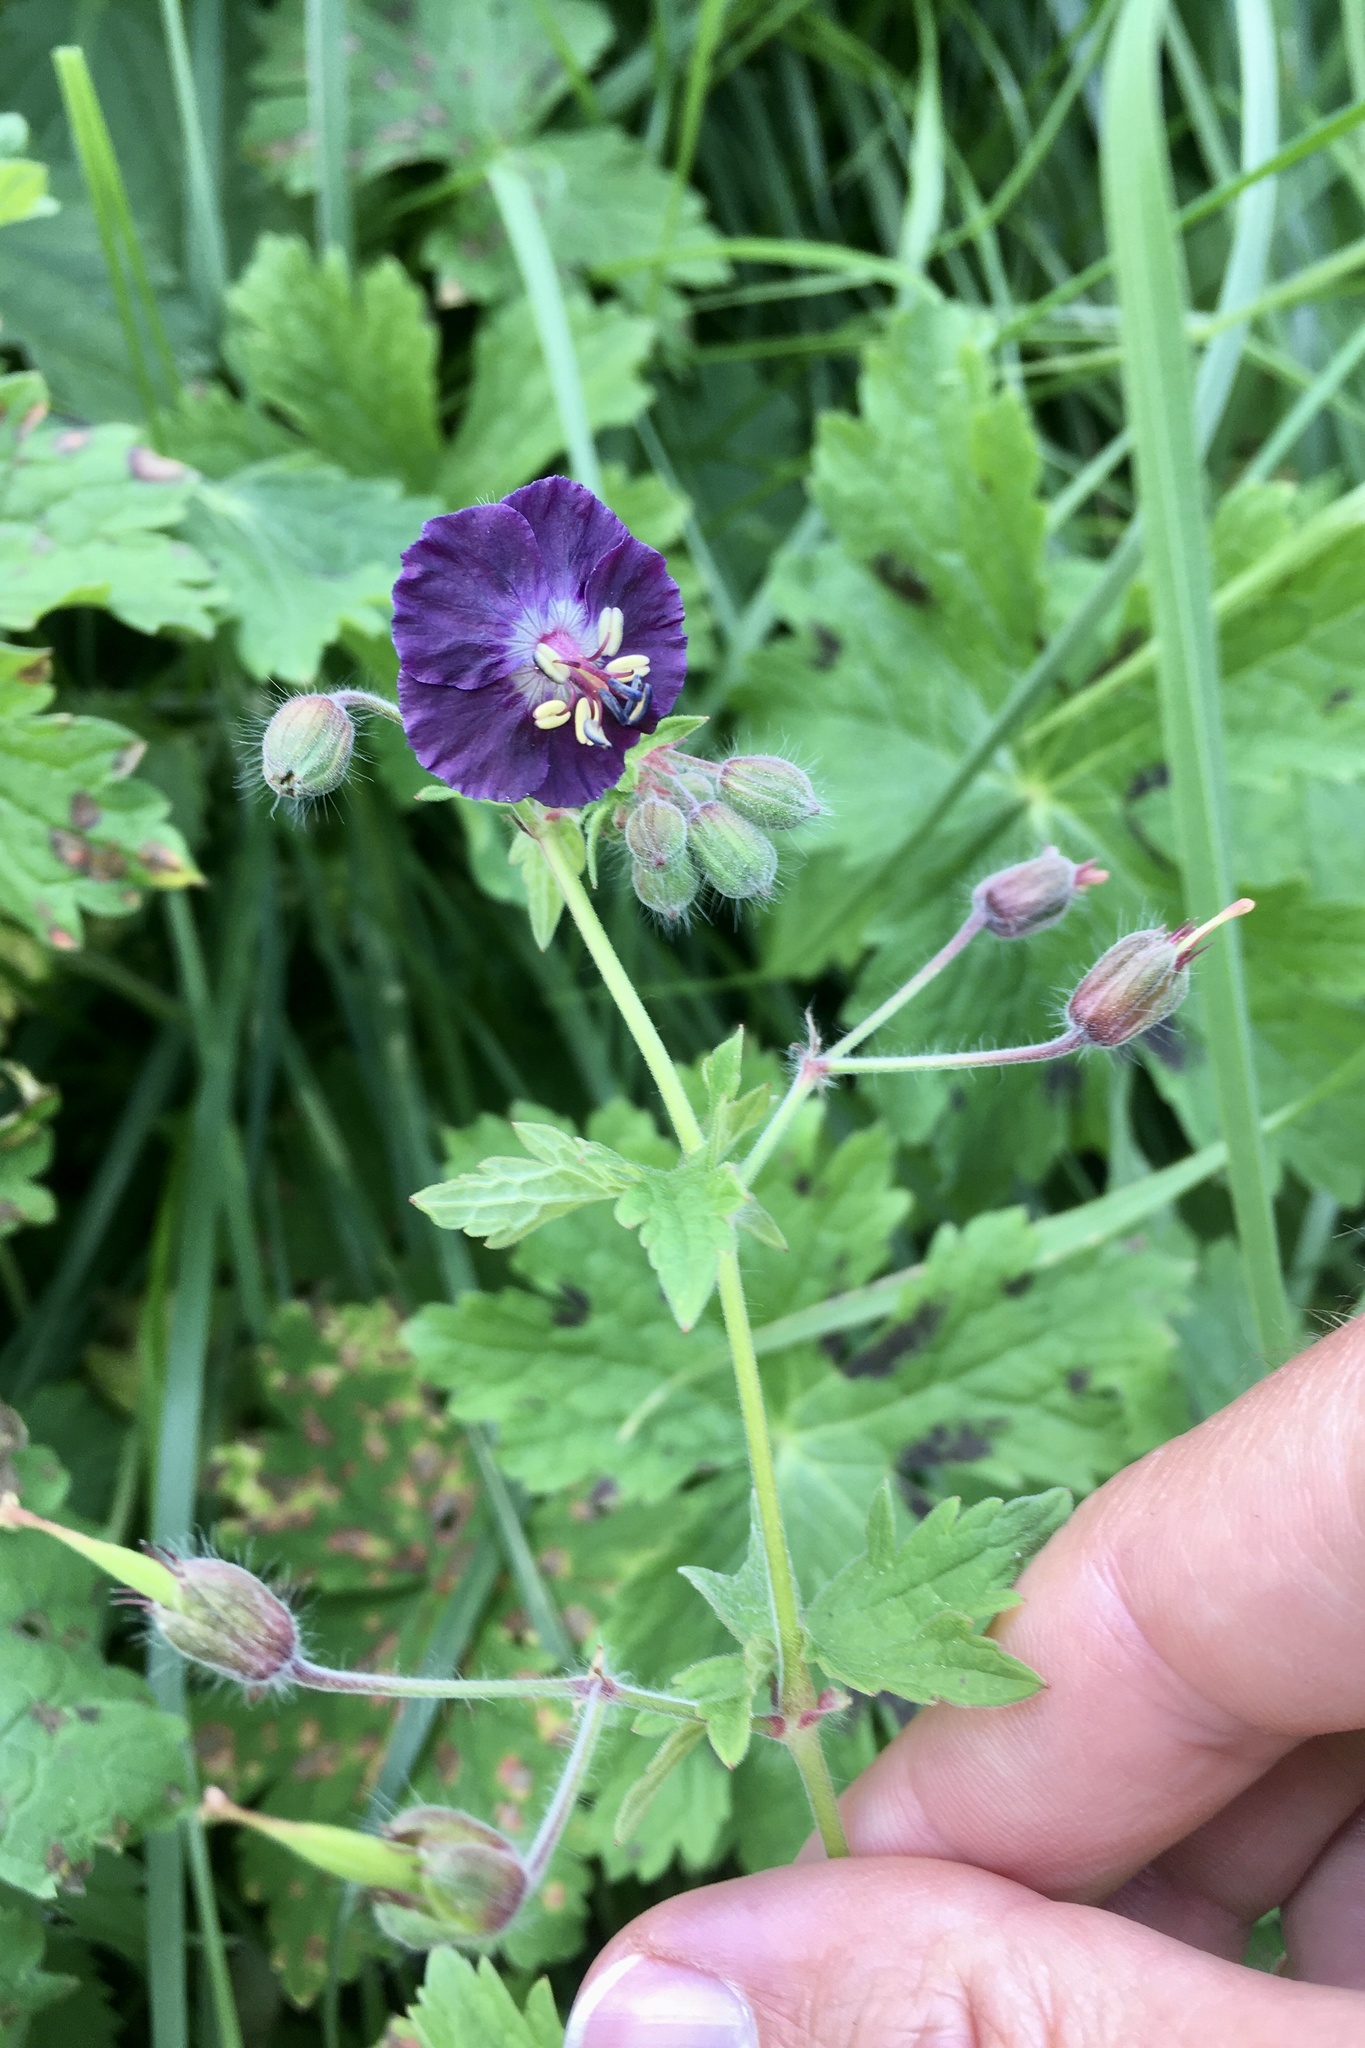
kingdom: Plantae
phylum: Tracheophyta
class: Magnoliopsida
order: Geraniales
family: Geraniaceae
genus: Geranium
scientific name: Geranium phaeum
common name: Dusky crane's-bill
